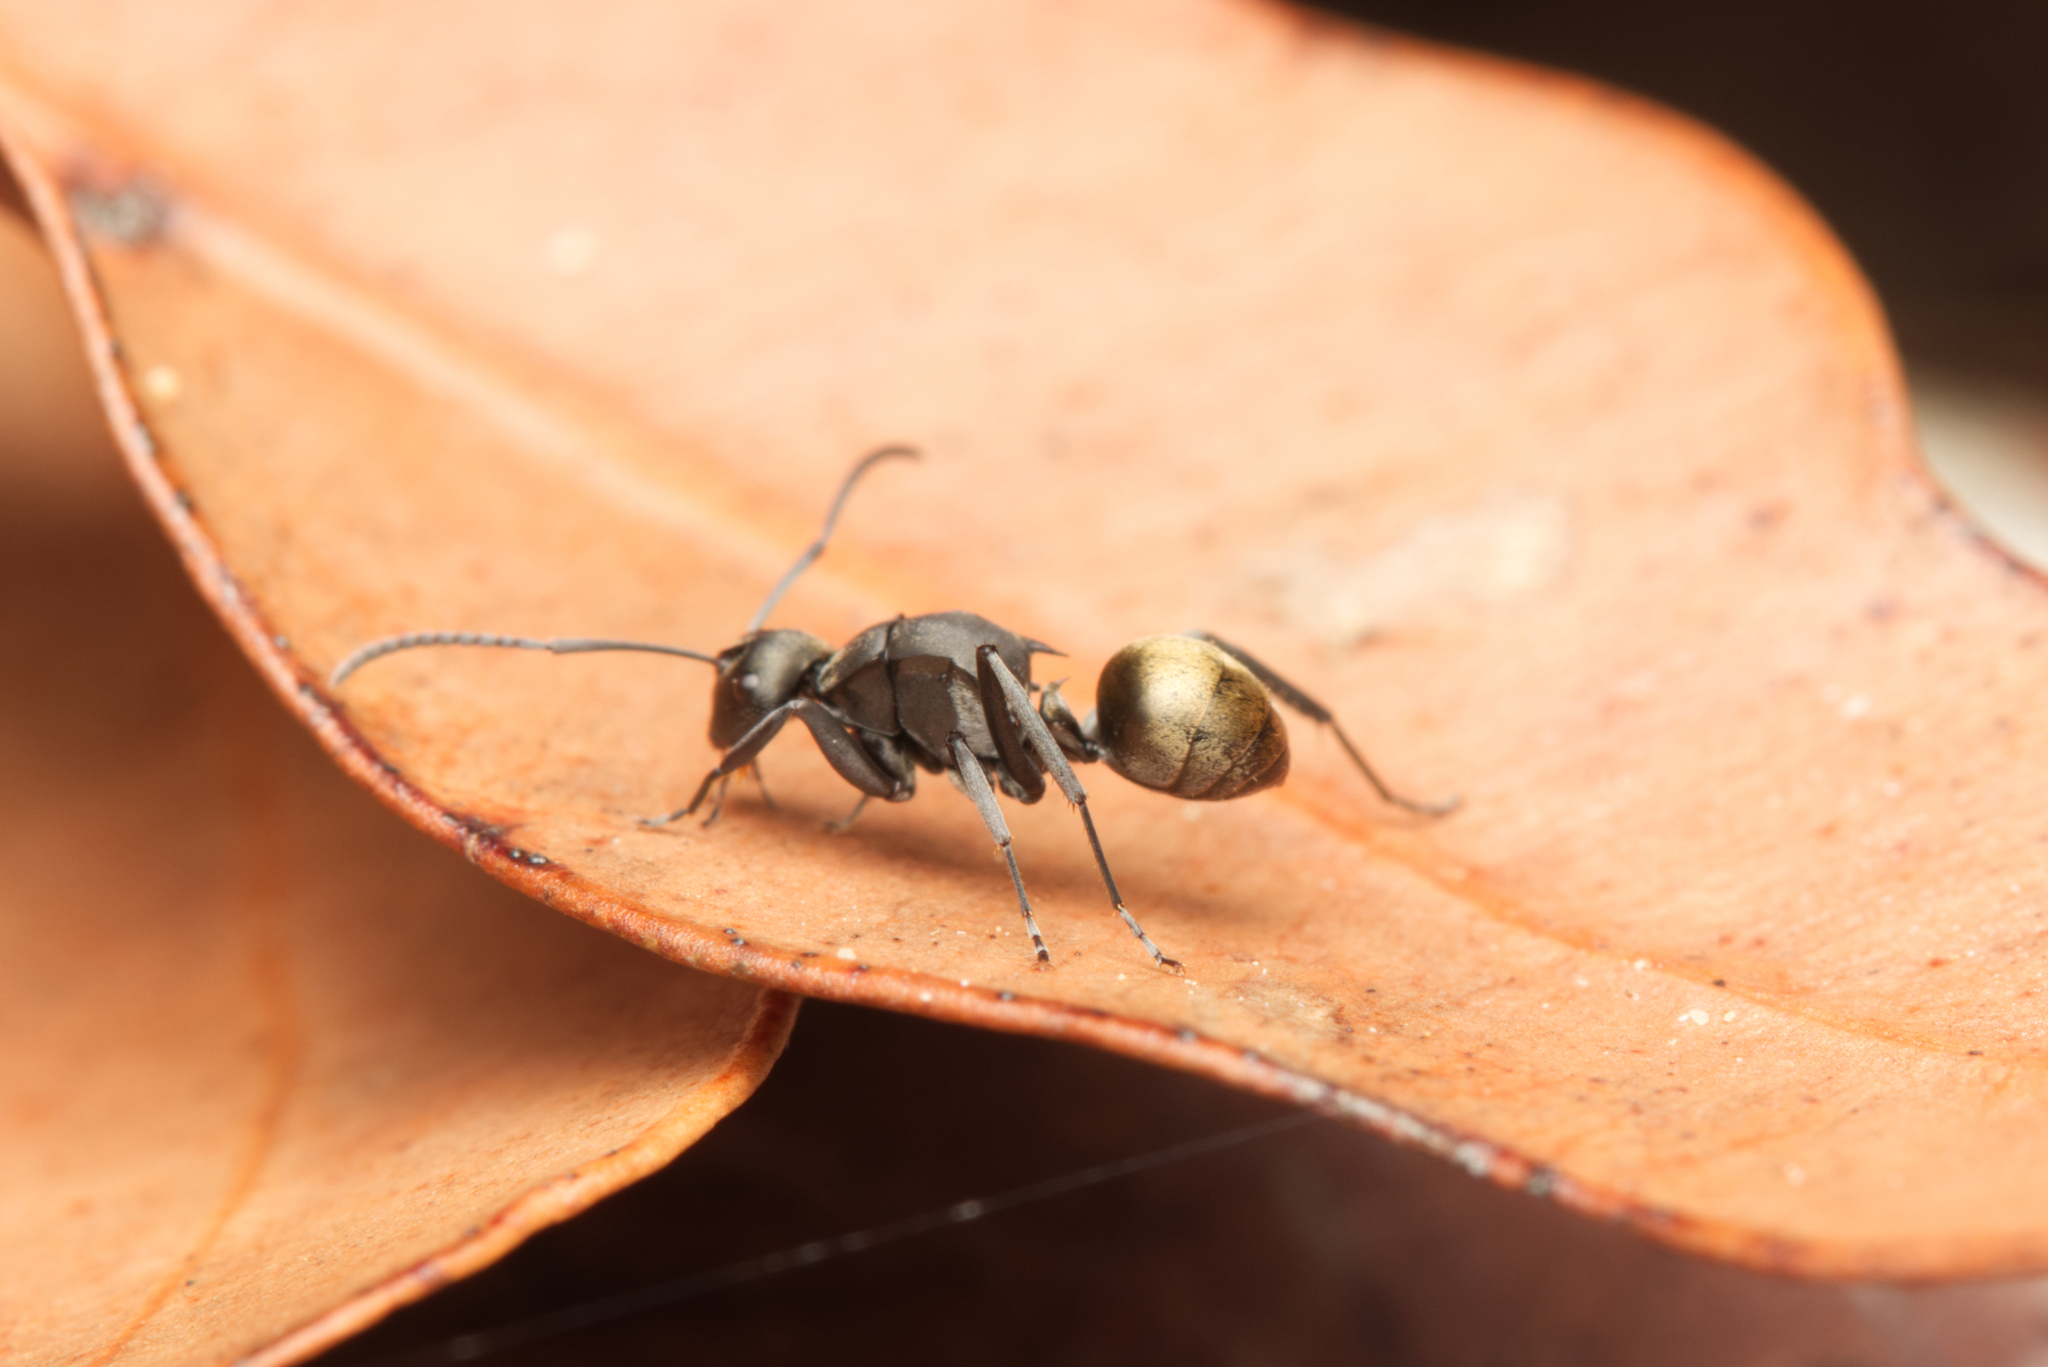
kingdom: Animalia
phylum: Arthropoda
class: Insecta
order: Hymenoptera
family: Formicidae
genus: Polyrhachis
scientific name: Polyrhachis tubifera
